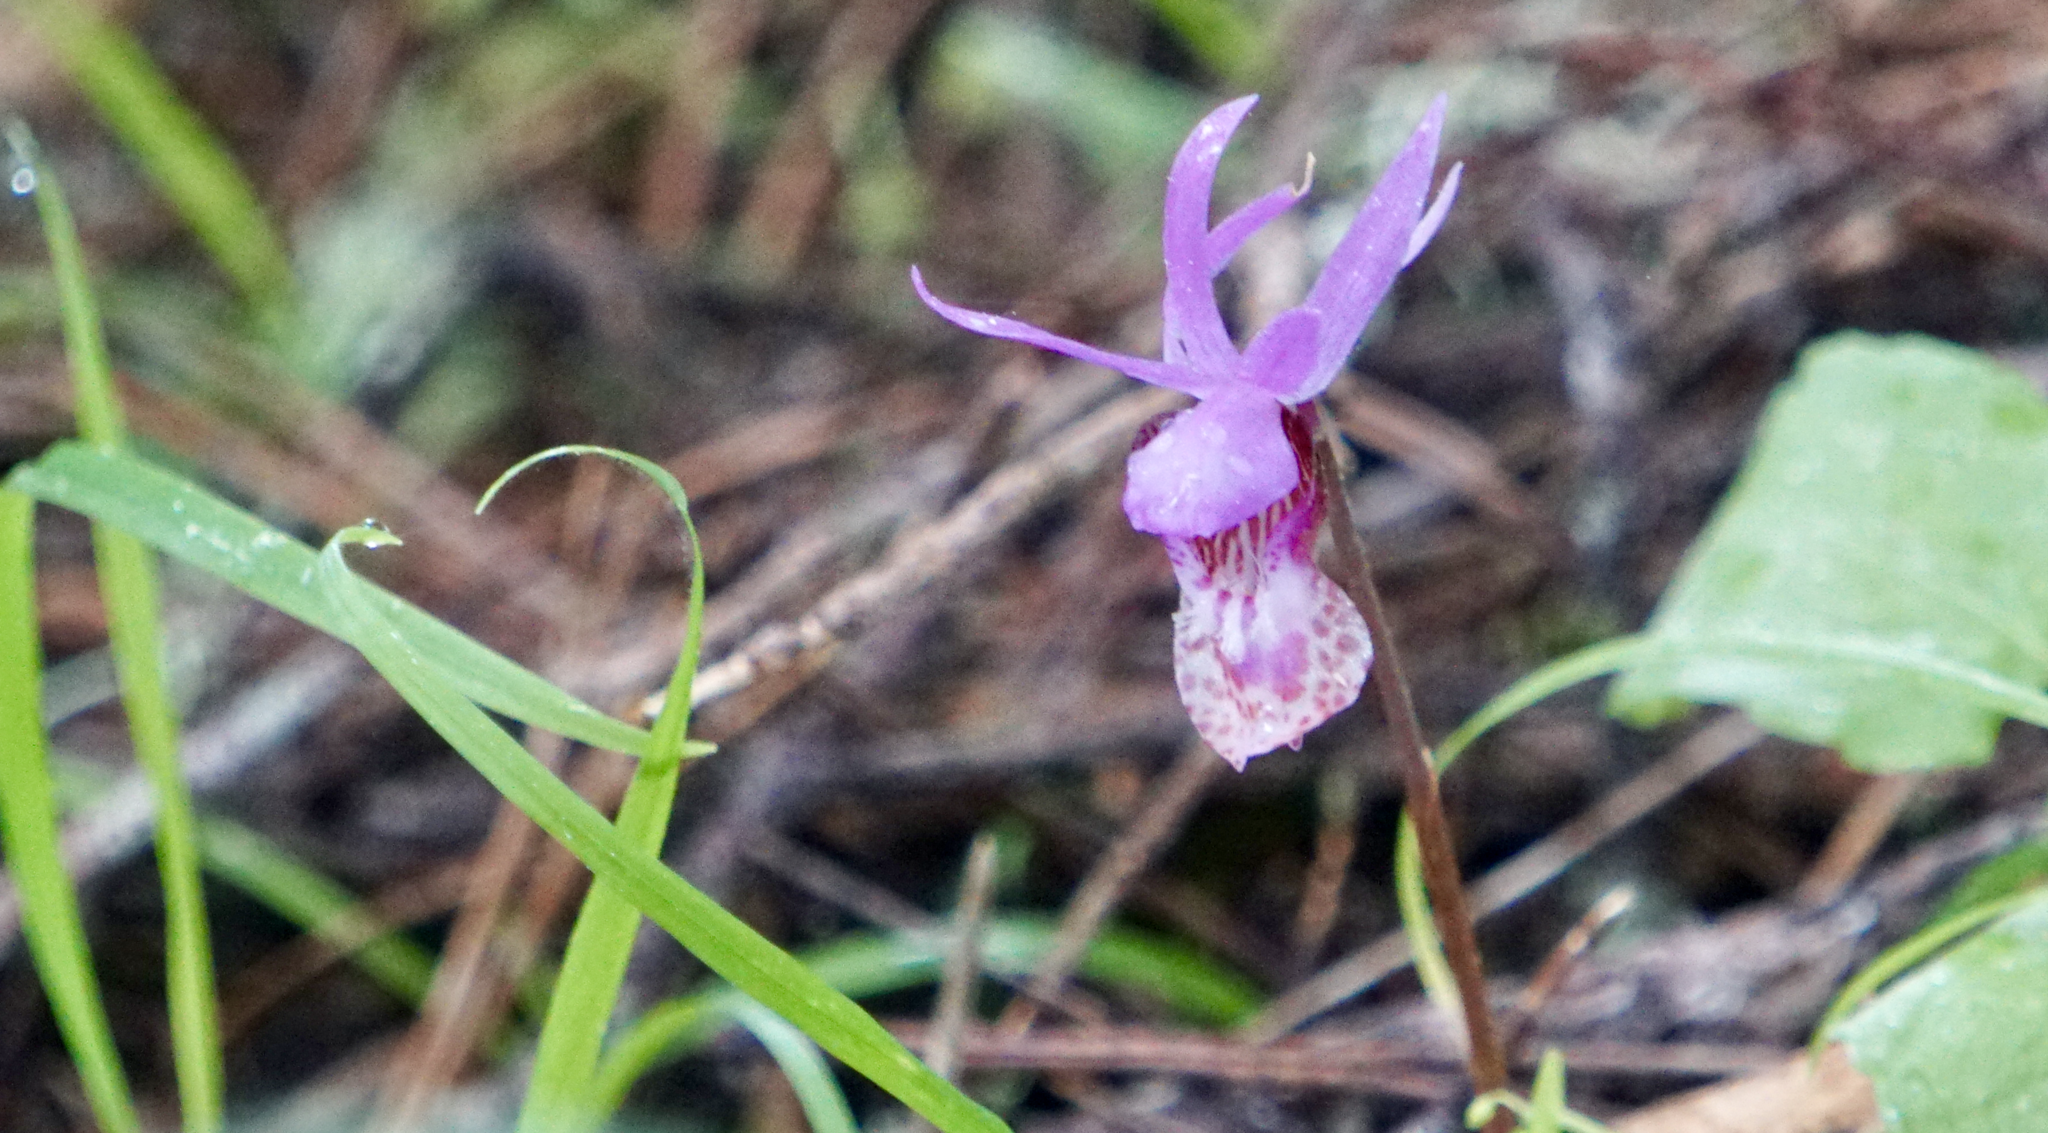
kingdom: Plantae
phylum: Tracheophyta
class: Liliopsida
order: Asparagales
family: Orchidaceae
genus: Calypso
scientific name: Calypso bulbosa
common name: Calypso
